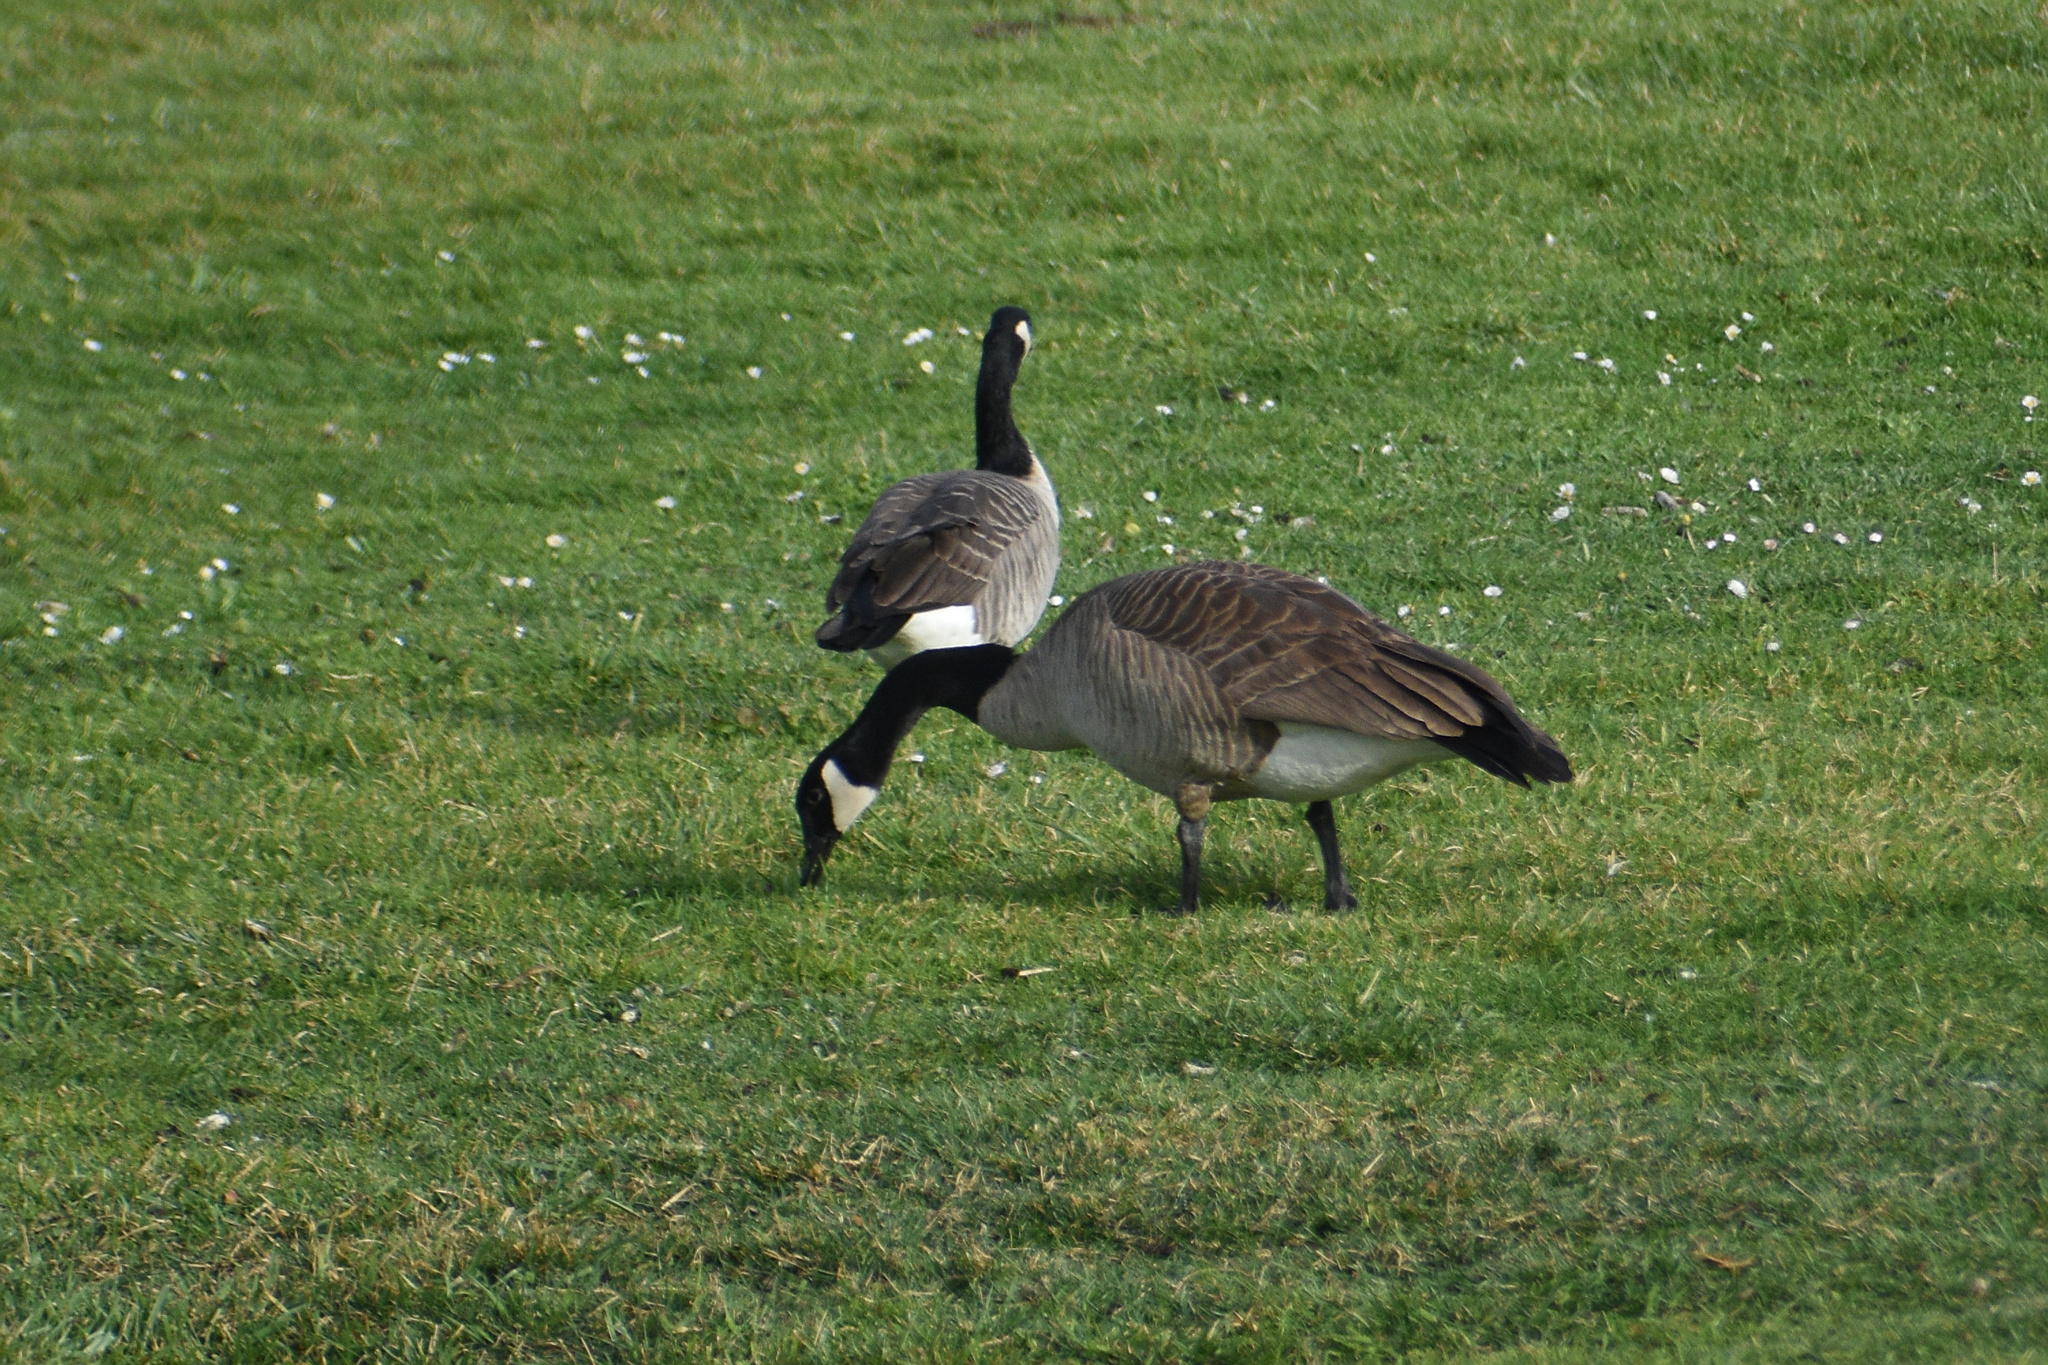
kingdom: Animalia
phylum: Chordata
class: Aves
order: Anseriformes
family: Anatidae
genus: Branta
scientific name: Branta canadensis
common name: Canada goose
